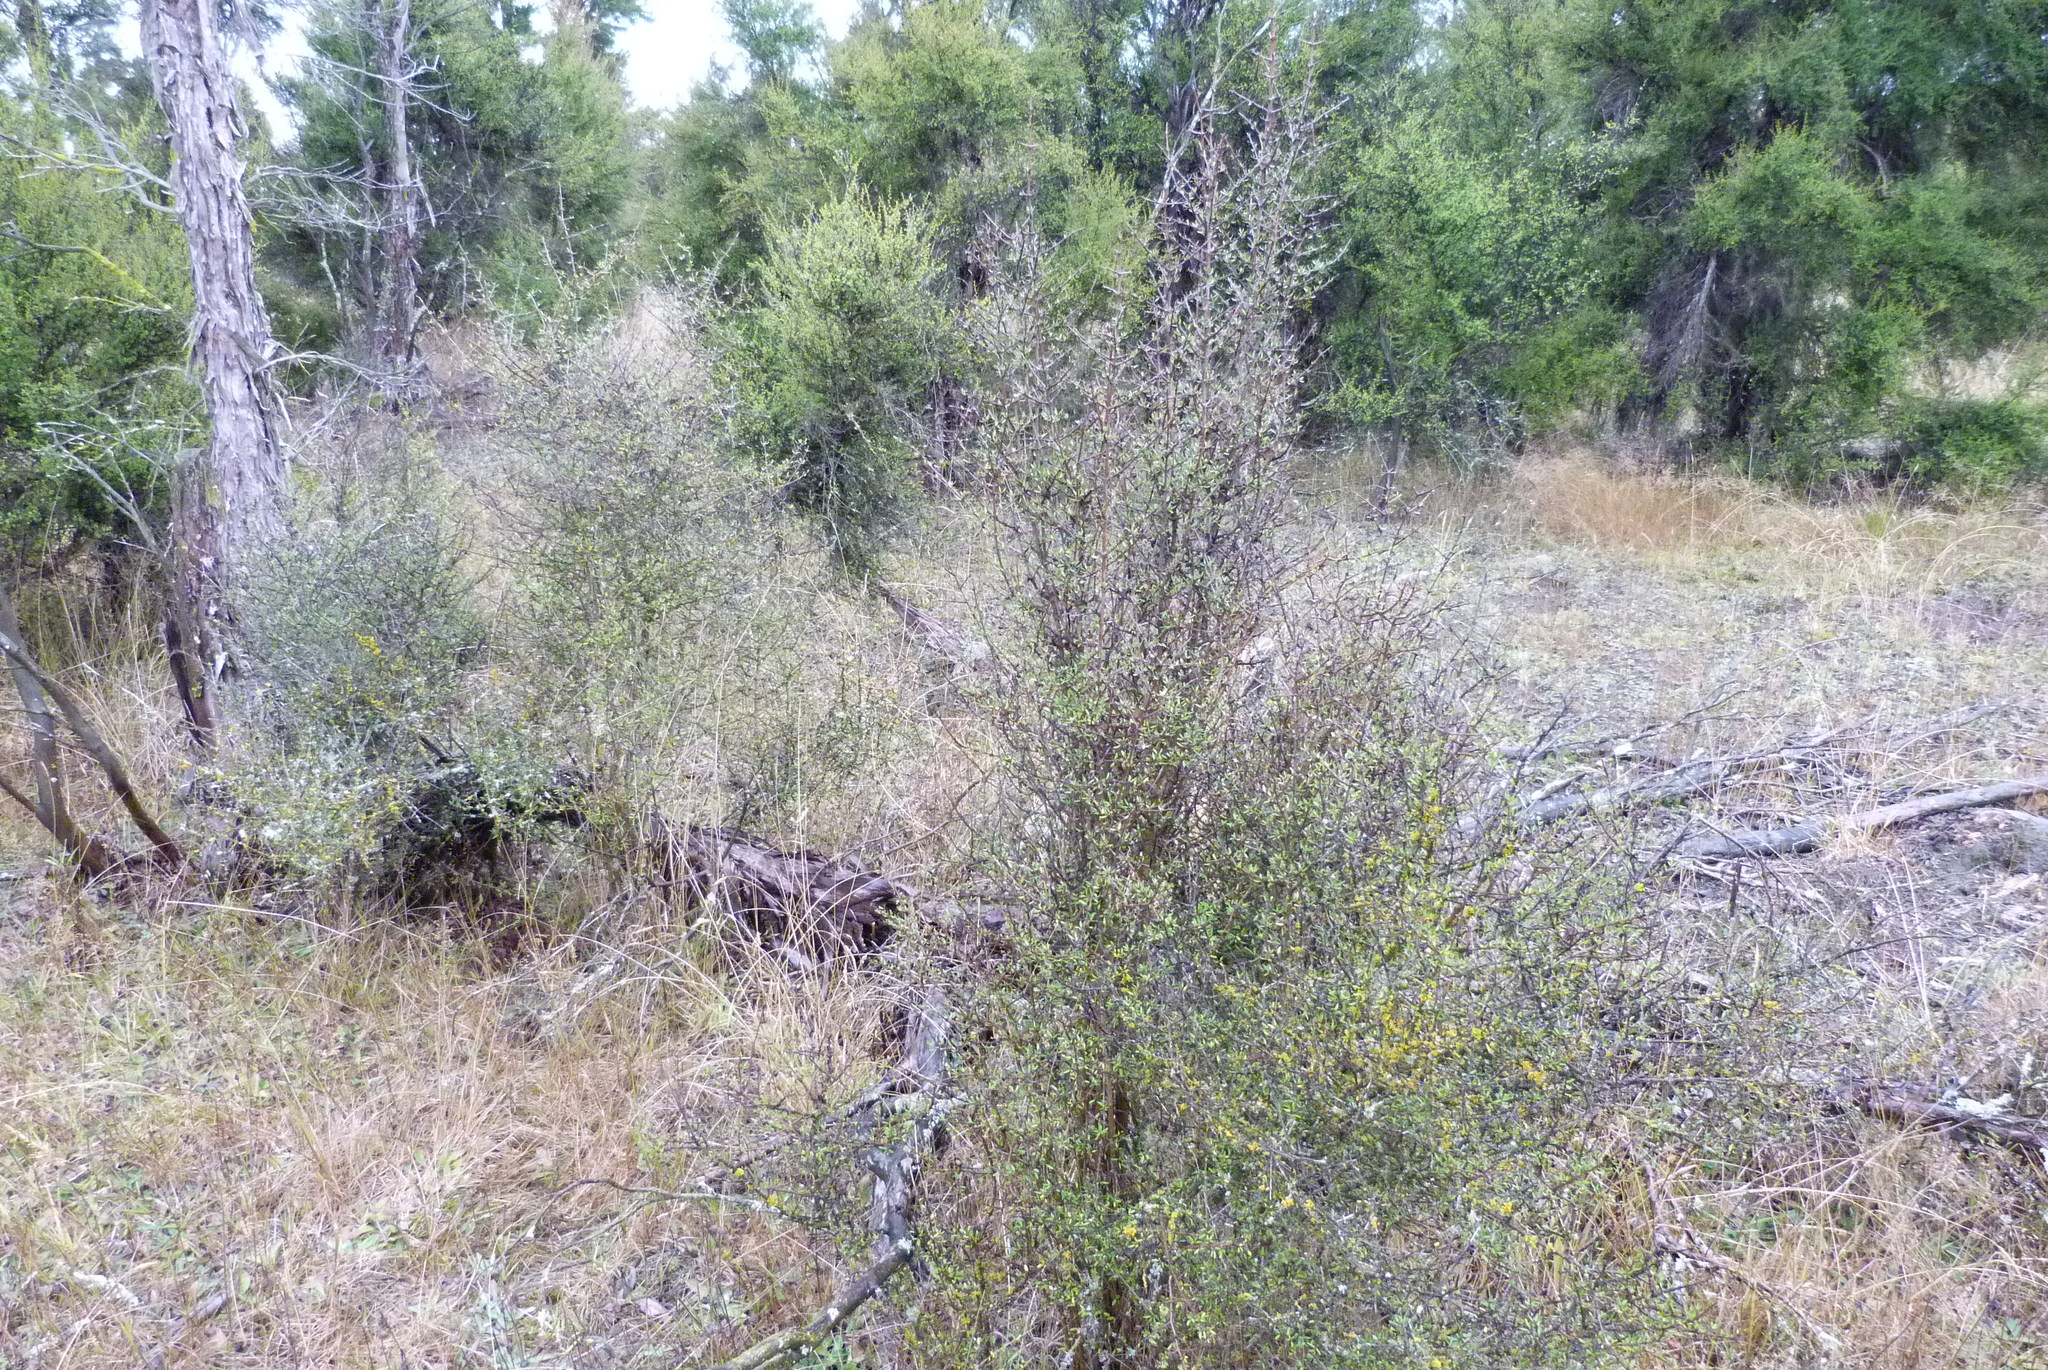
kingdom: Plantae
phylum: Tracheophyta
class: Magnoliopsida
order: Gentianales
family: Rubiaceae
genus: Coprosma
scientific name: Coprosma propinqua
